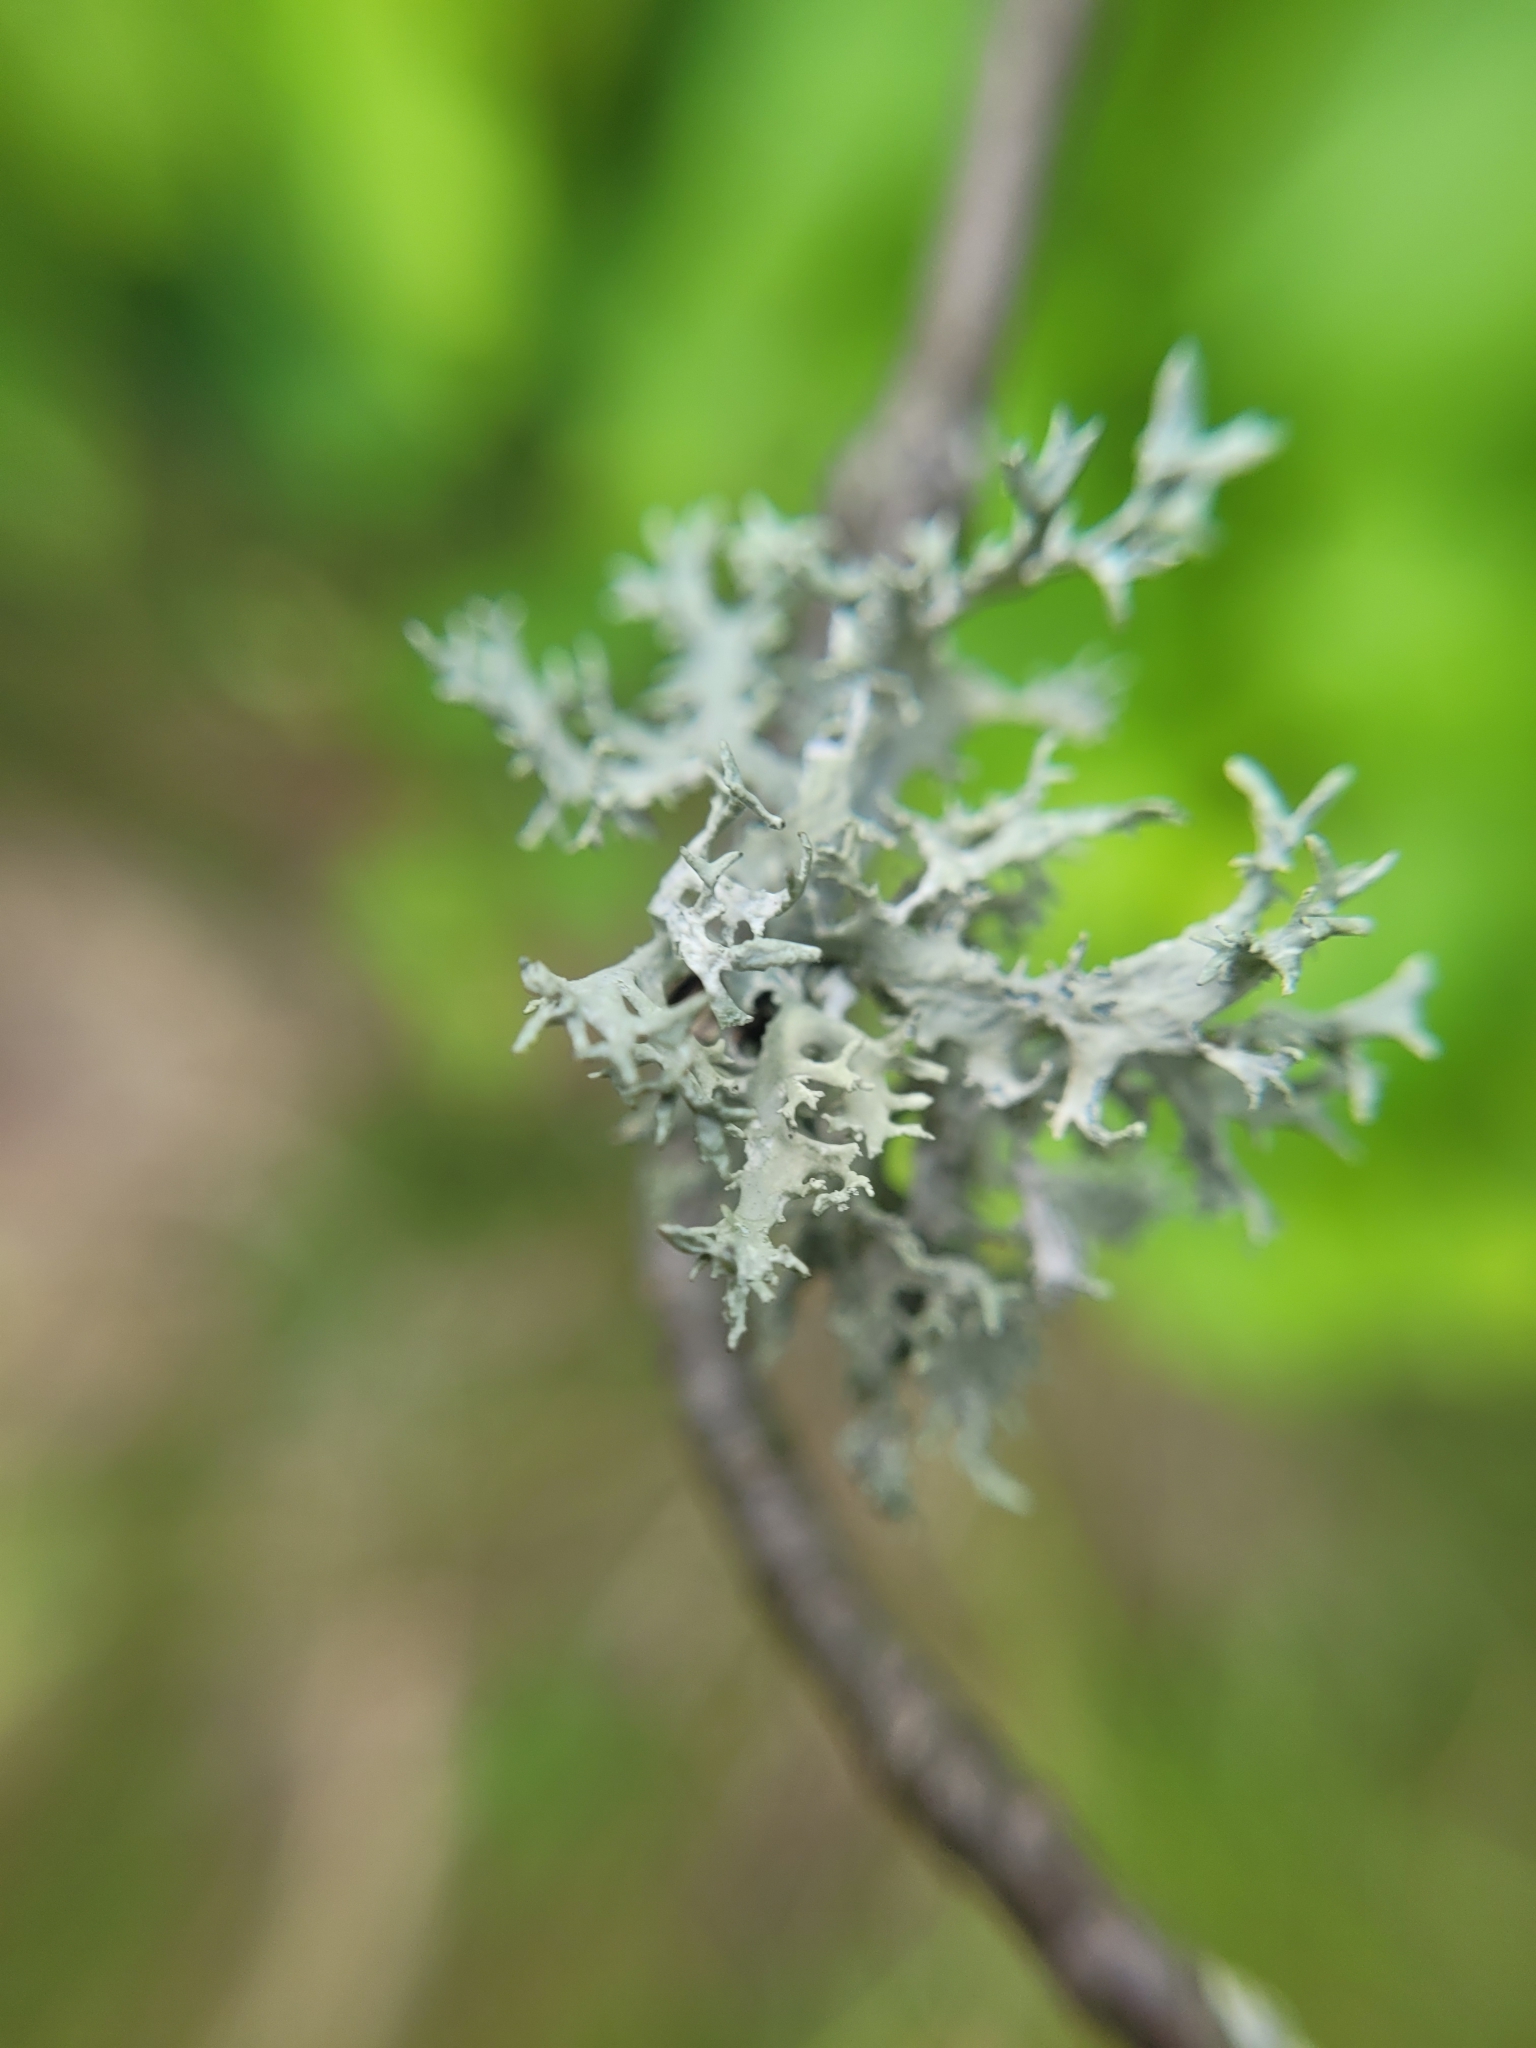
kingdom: Fungi
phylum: Ascomycota
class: Lecanoromycetes
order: Lecanorales
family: Parmeliaceae
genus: Evernia
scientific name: Evernia prunastri
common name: Oak moss
